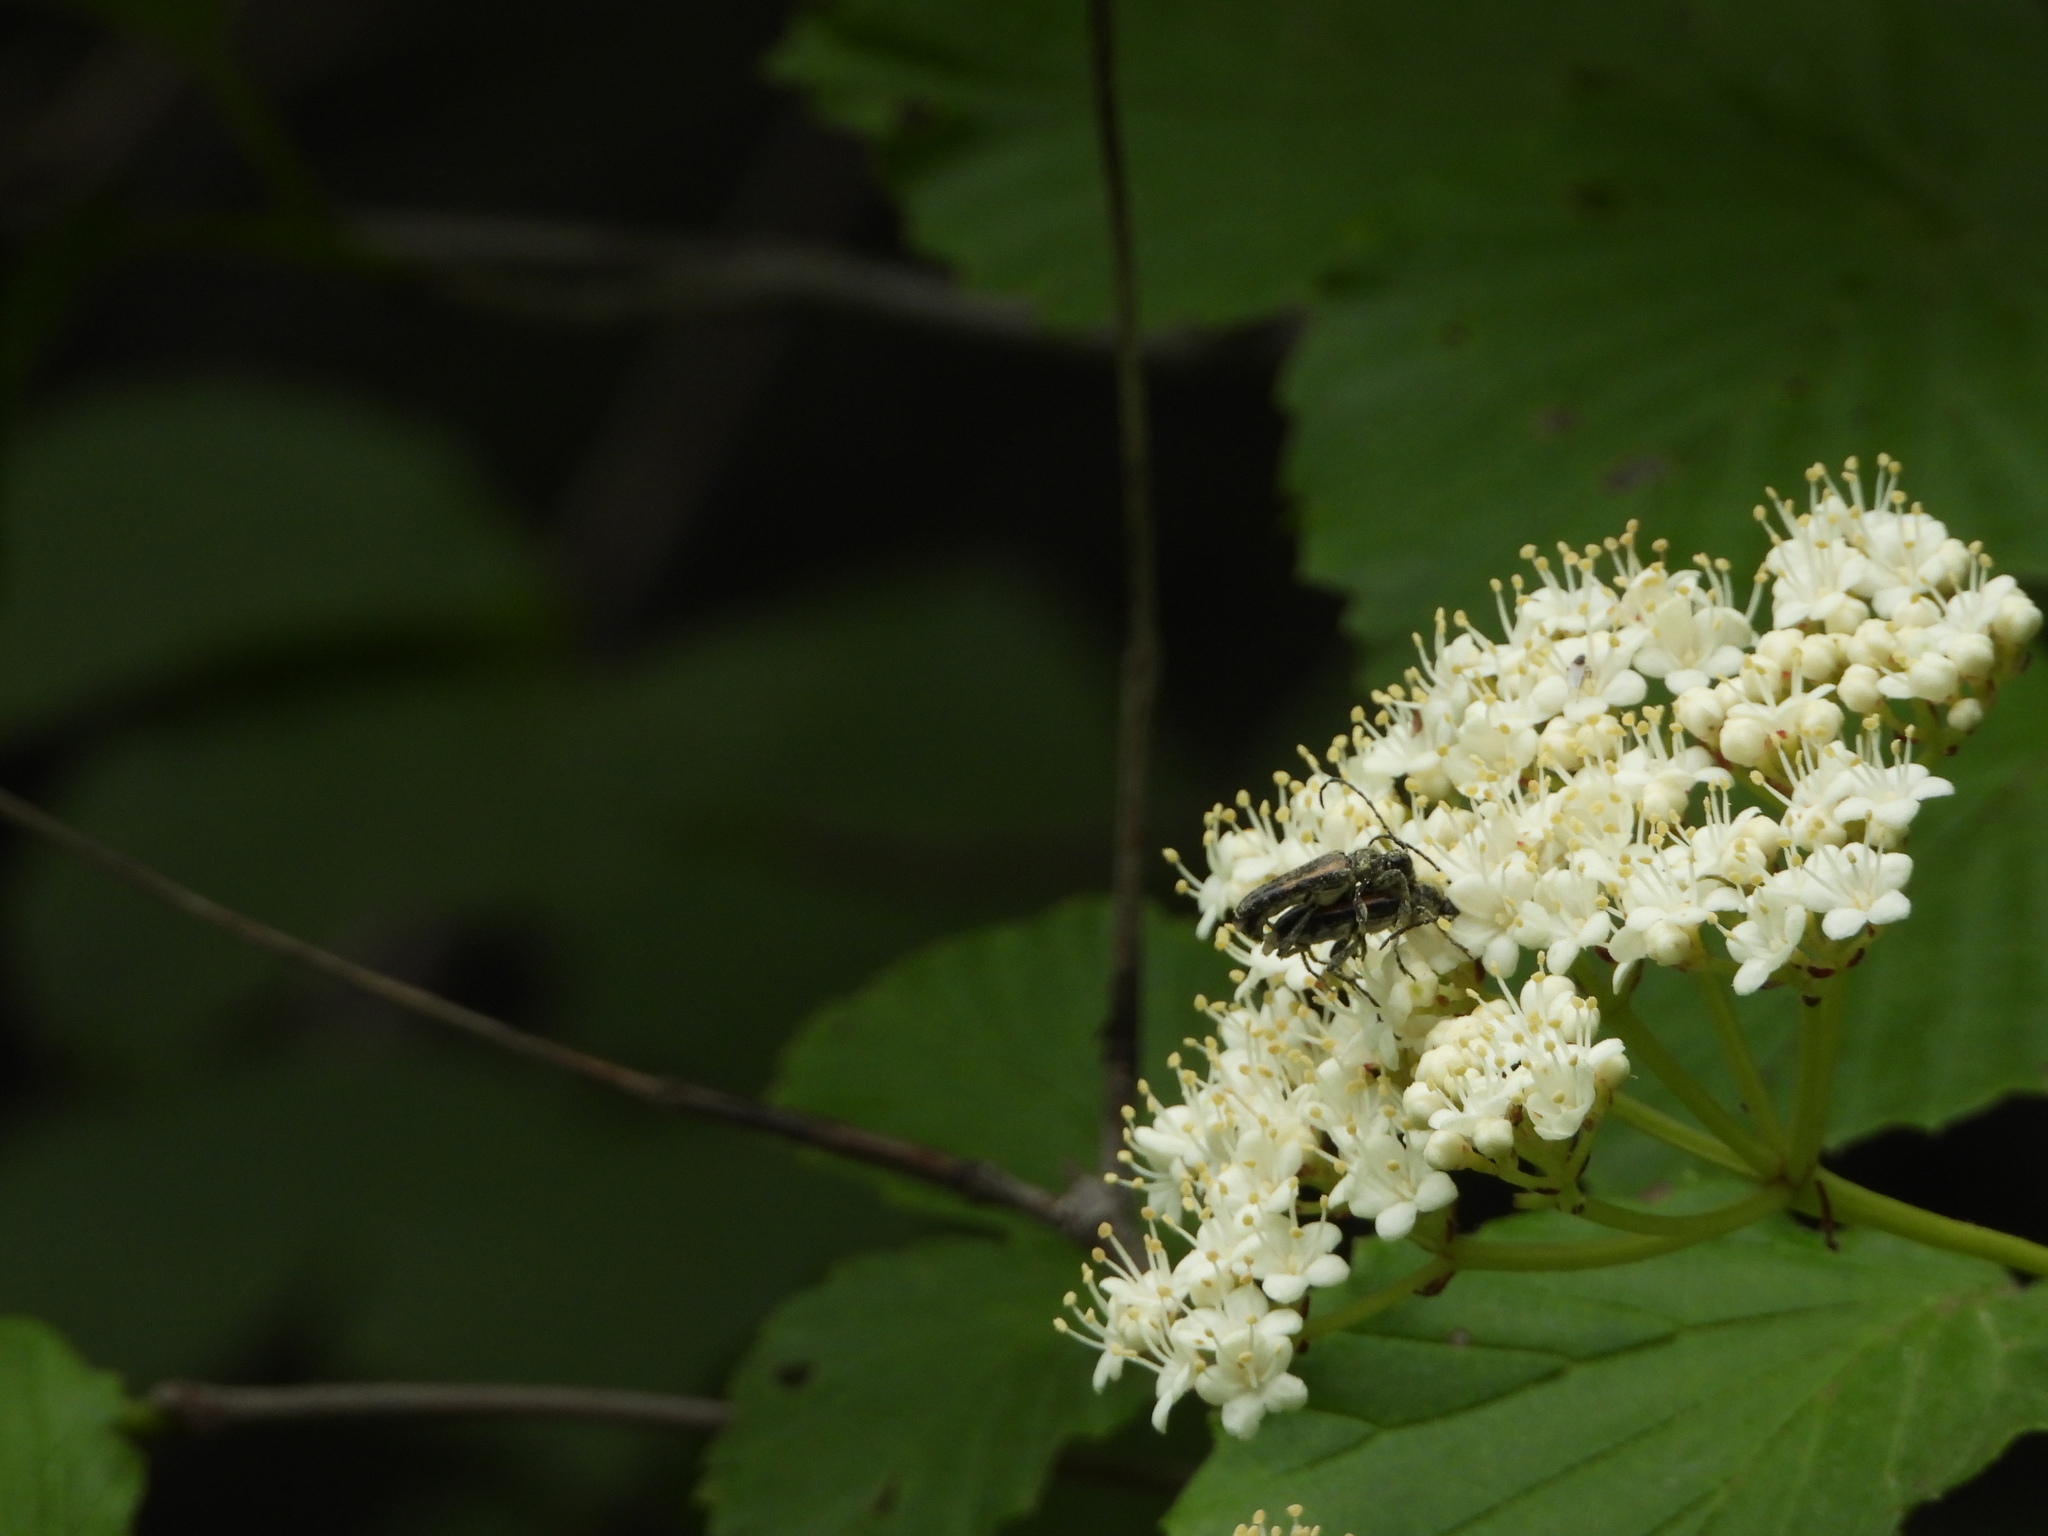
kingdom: Animalia
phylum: Arthropoda
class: Insecta
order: Coleoptera
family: Cerambycidae
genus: Strangalepta
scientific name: Strangalepta abbreviata
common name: Strangalepta flower longhorn beetle
